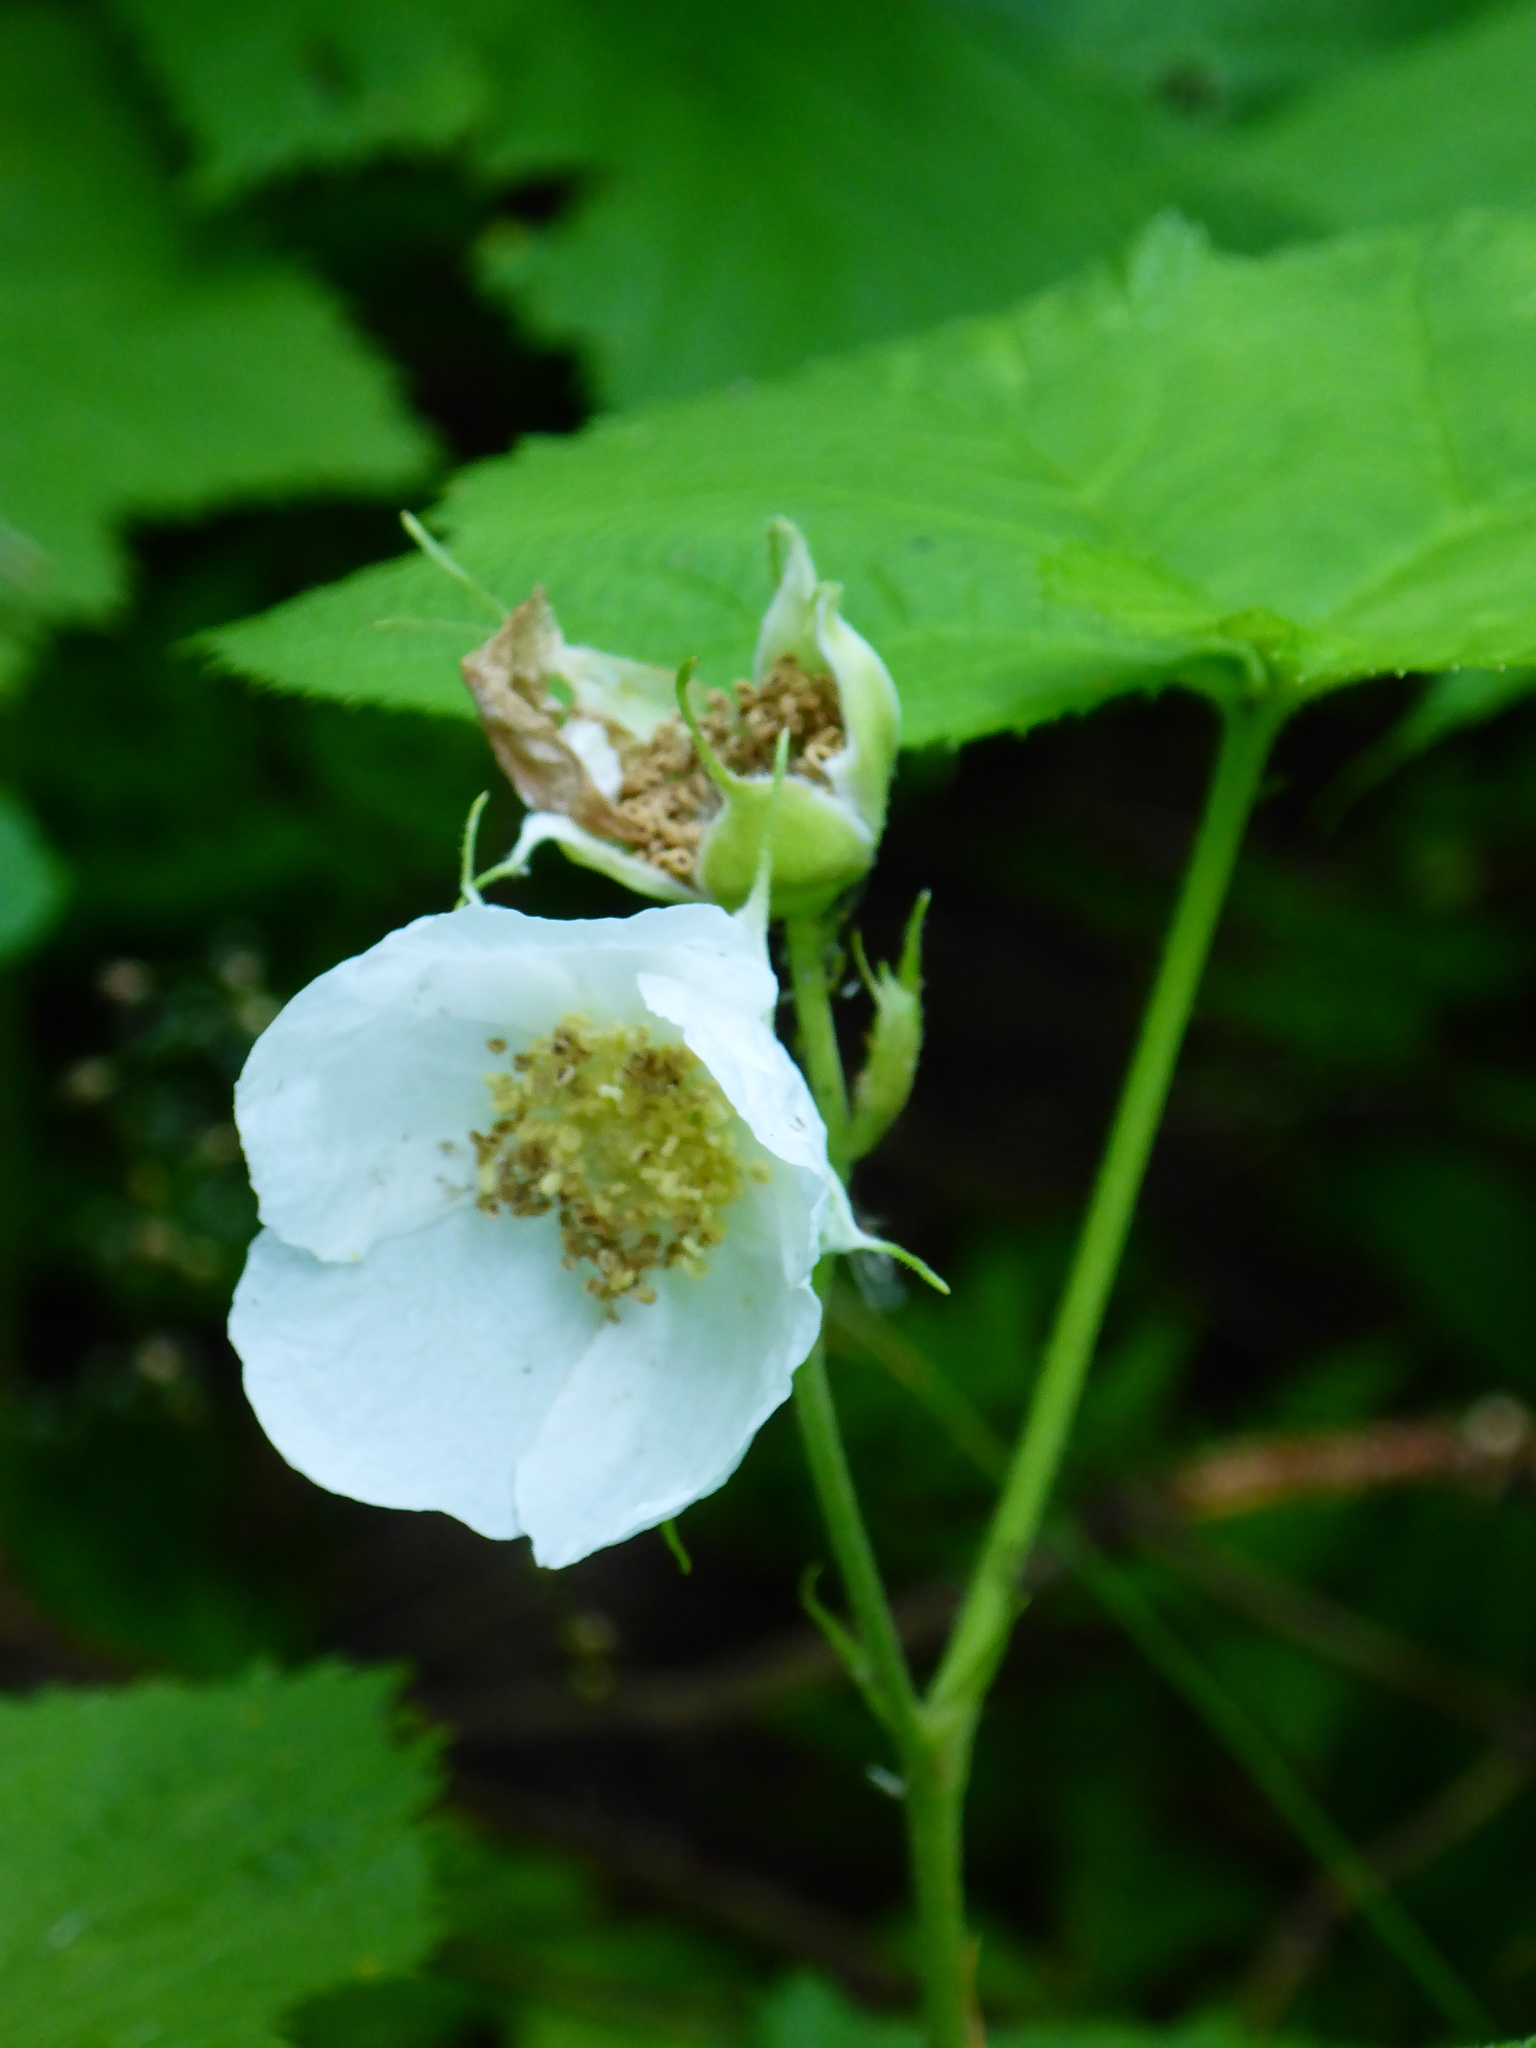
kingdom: Plantae
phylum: Tracheophyta
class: Magnoliopsida
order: Rosales
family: Rosaceae
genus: Rubus
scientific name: Rubus parviflorus
